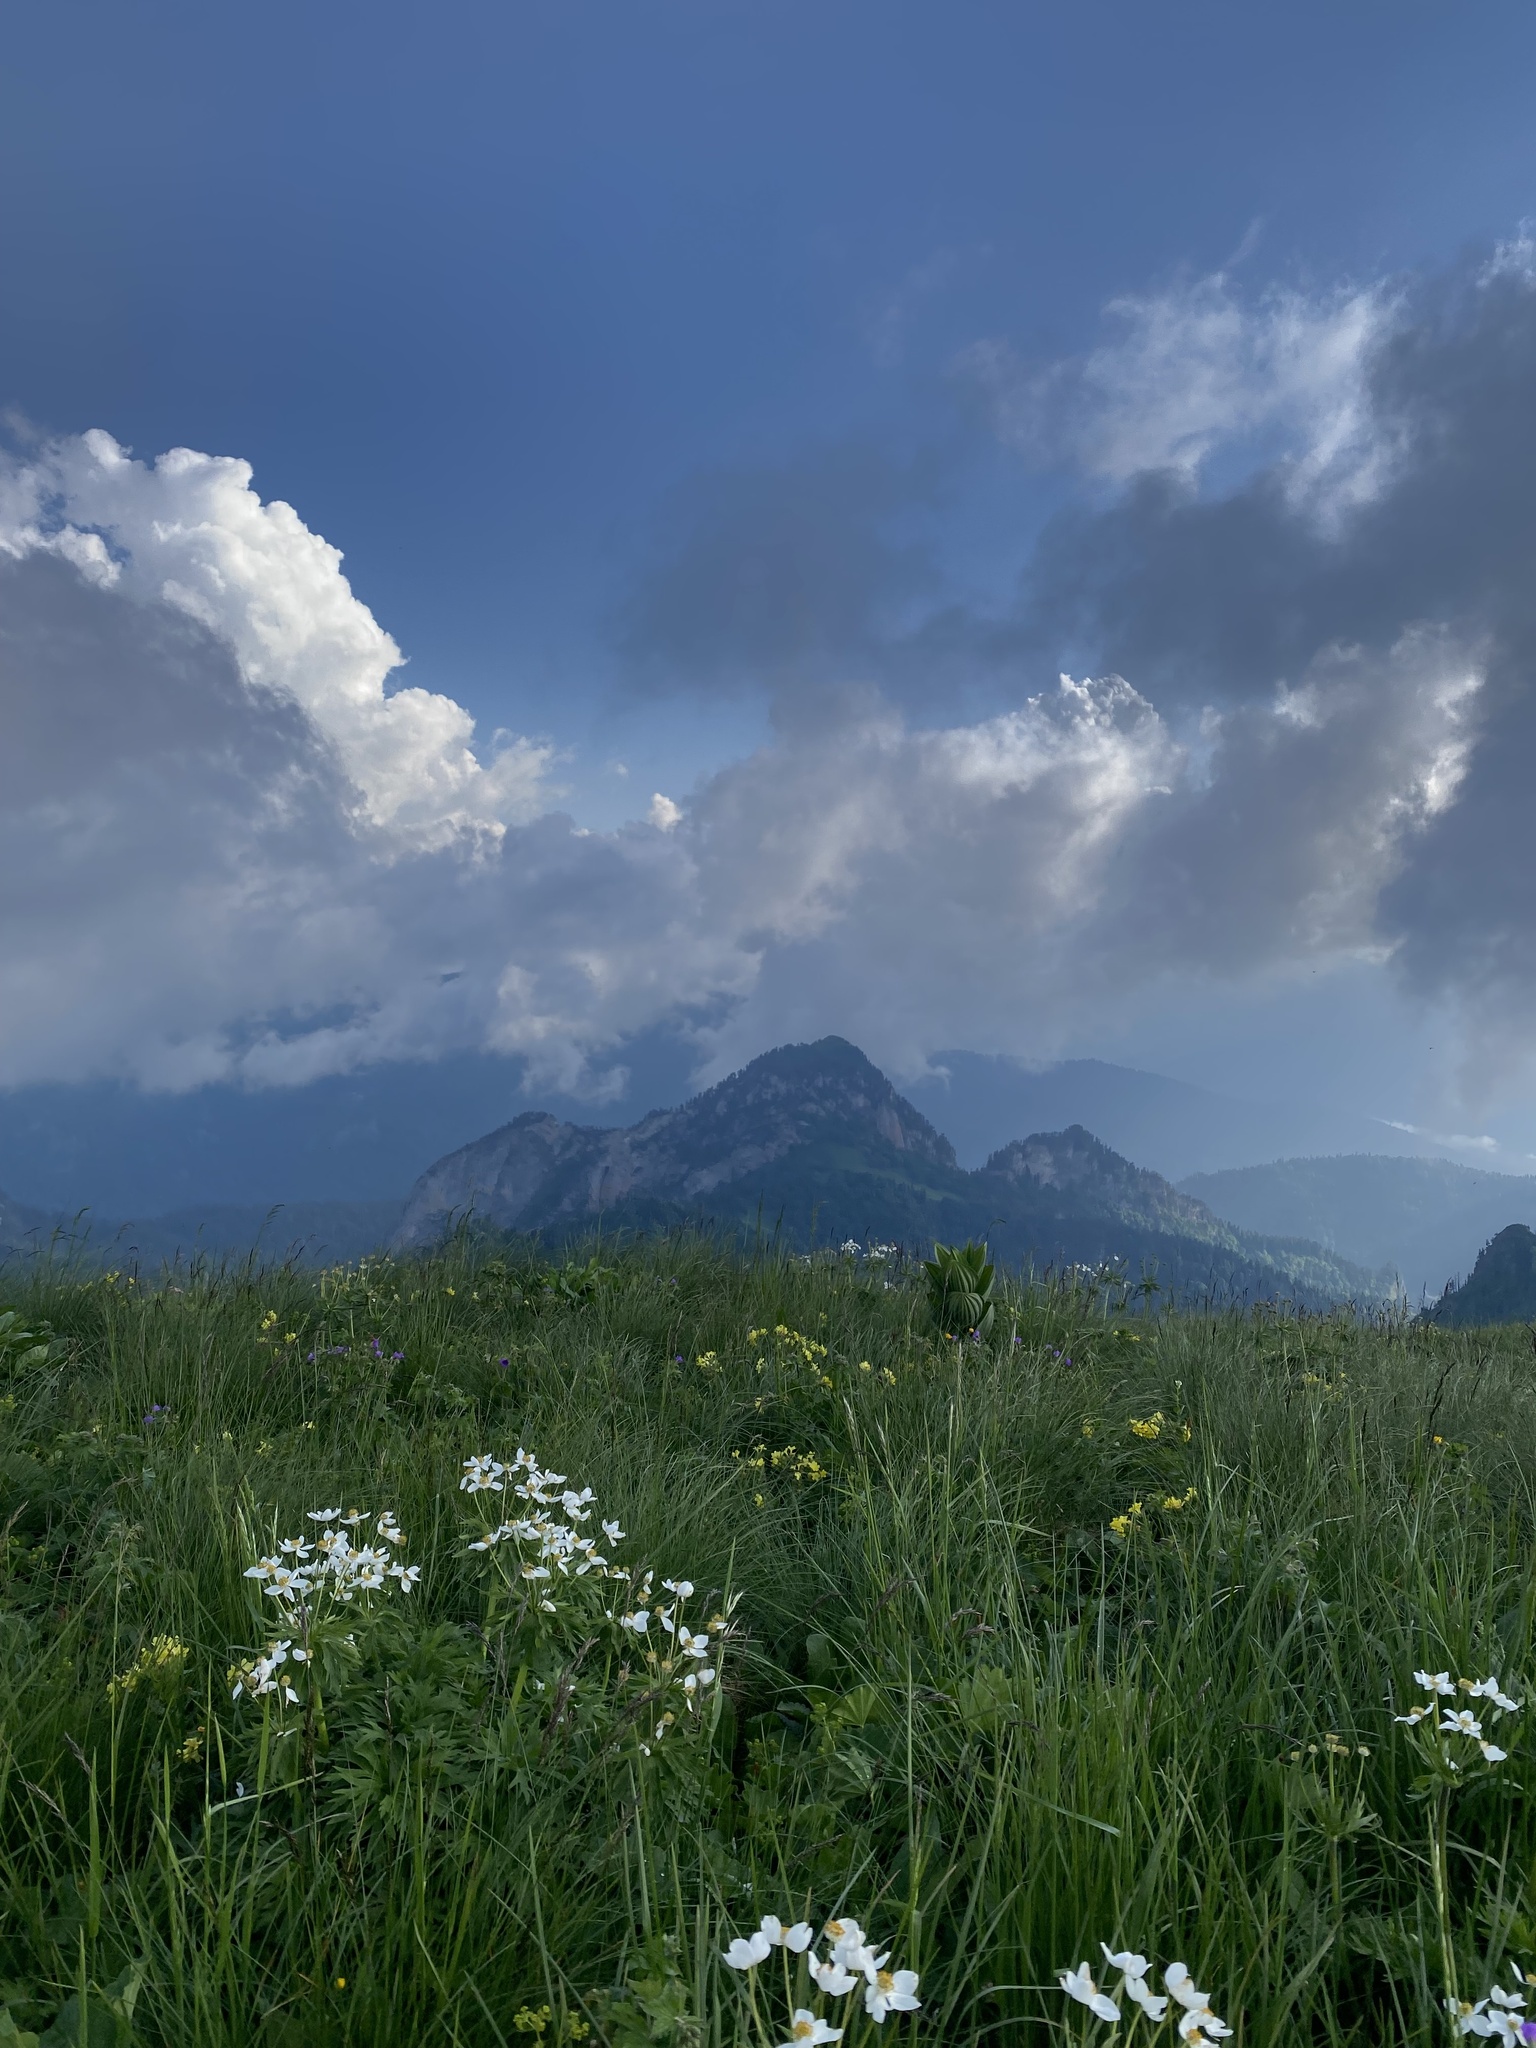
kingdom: Plantae
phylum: Tracheophyta
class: Magnoliopsida
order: Ranunculales
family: Ranunculaceae
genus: Anemonastrum
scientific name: Anemonastrum narcissiflorum
